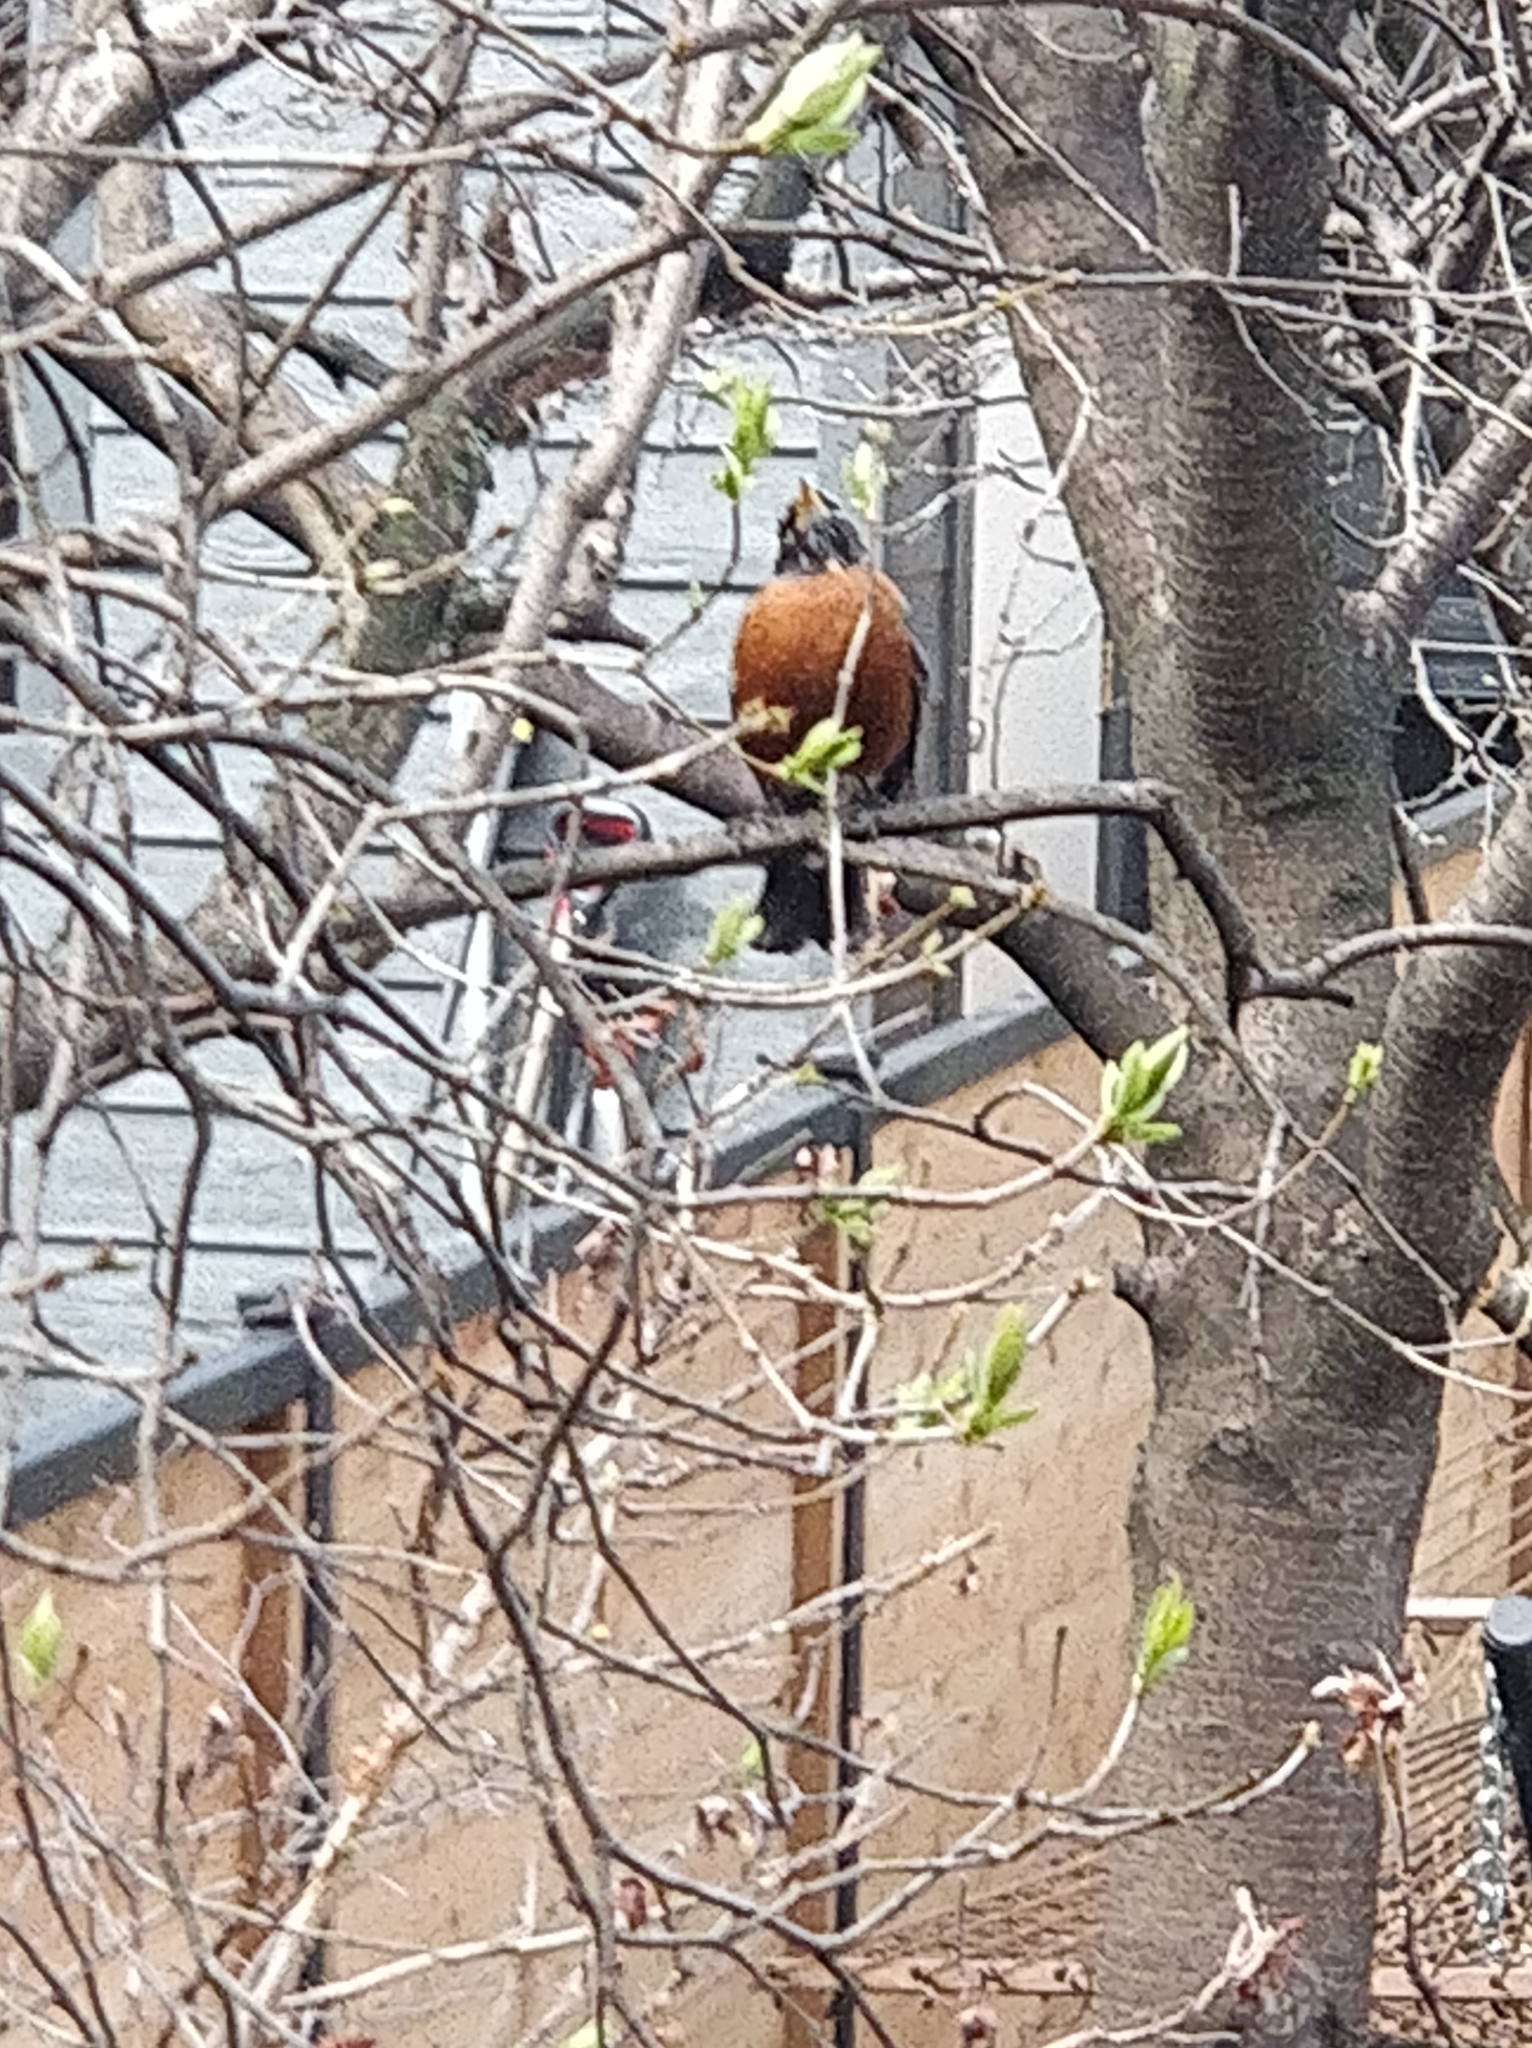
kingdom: Animalia
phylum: Chordata
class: Aves
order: Passeriformes
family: Turdidae
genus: Turdus
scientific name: Turdus migratorius
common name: American robin
